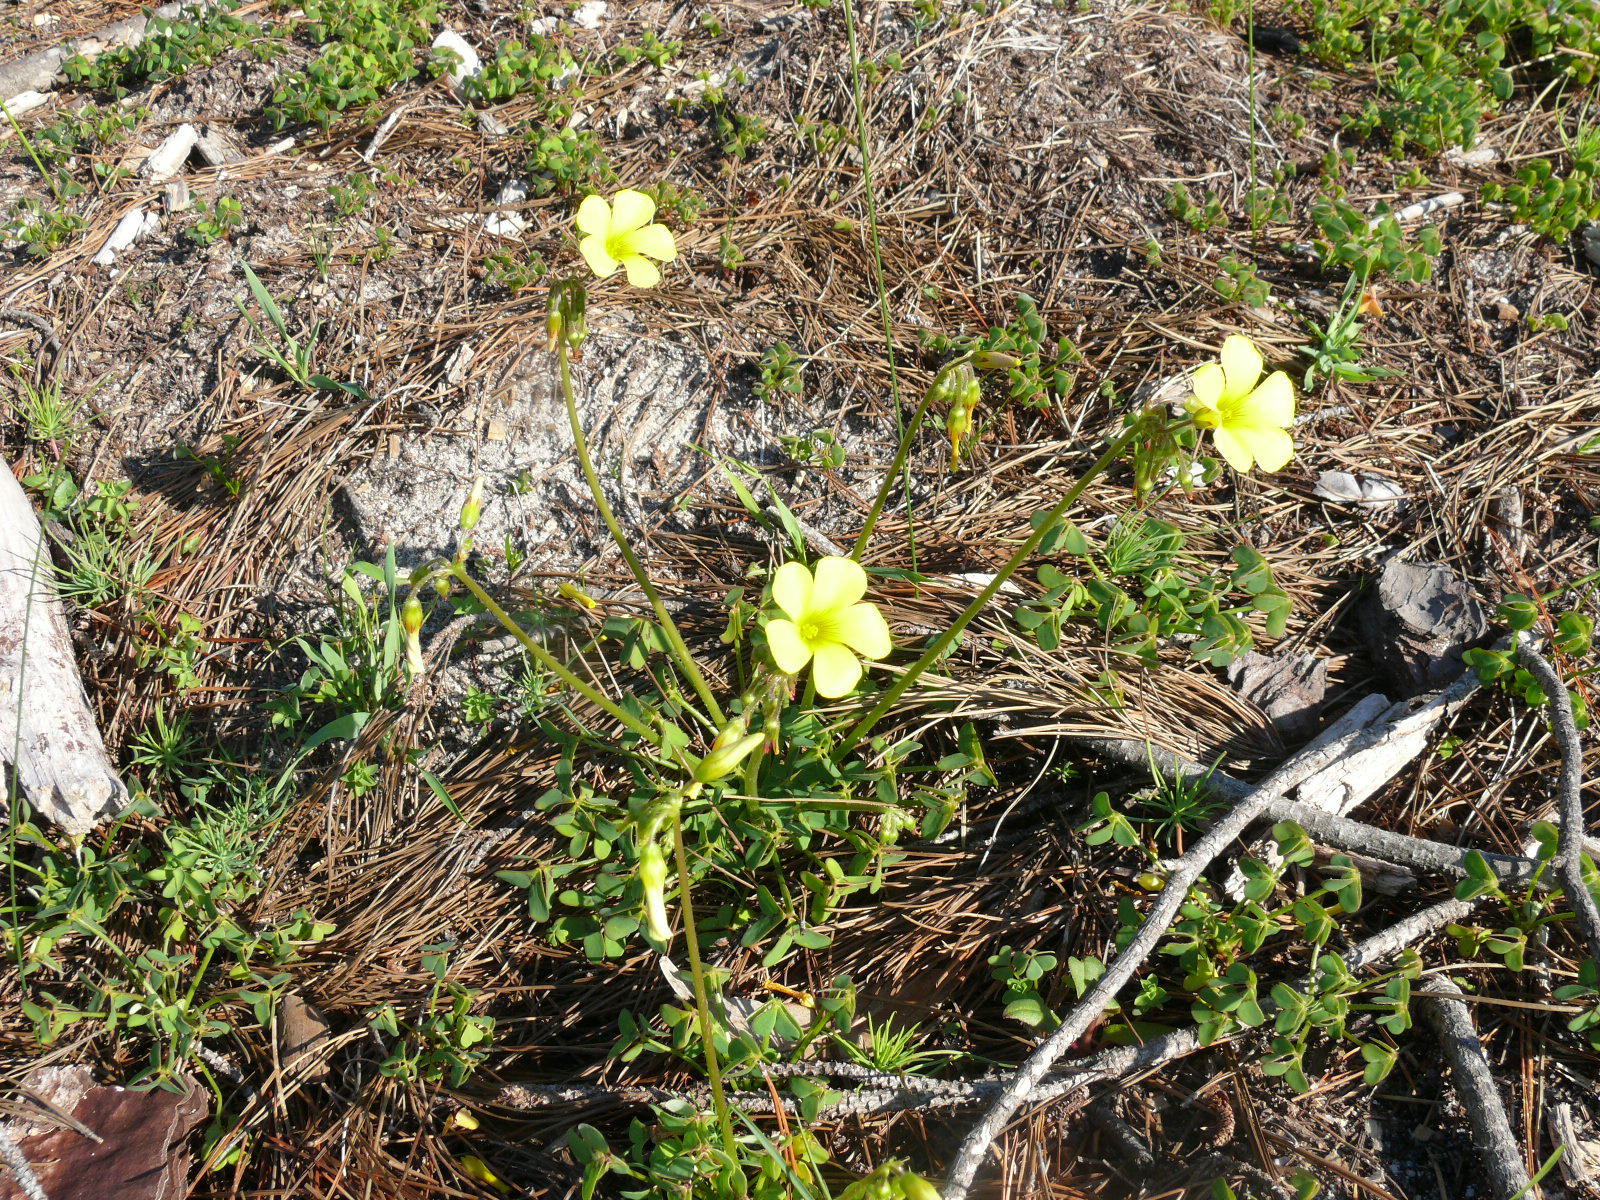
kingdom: Plantae
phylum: Tracheophyta
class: Magnoliopsida
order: Oxalidales
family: Oxalidaceae
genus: Oxalis
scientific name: Oxalis pes-caprae
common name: Bermuda-buttercup
